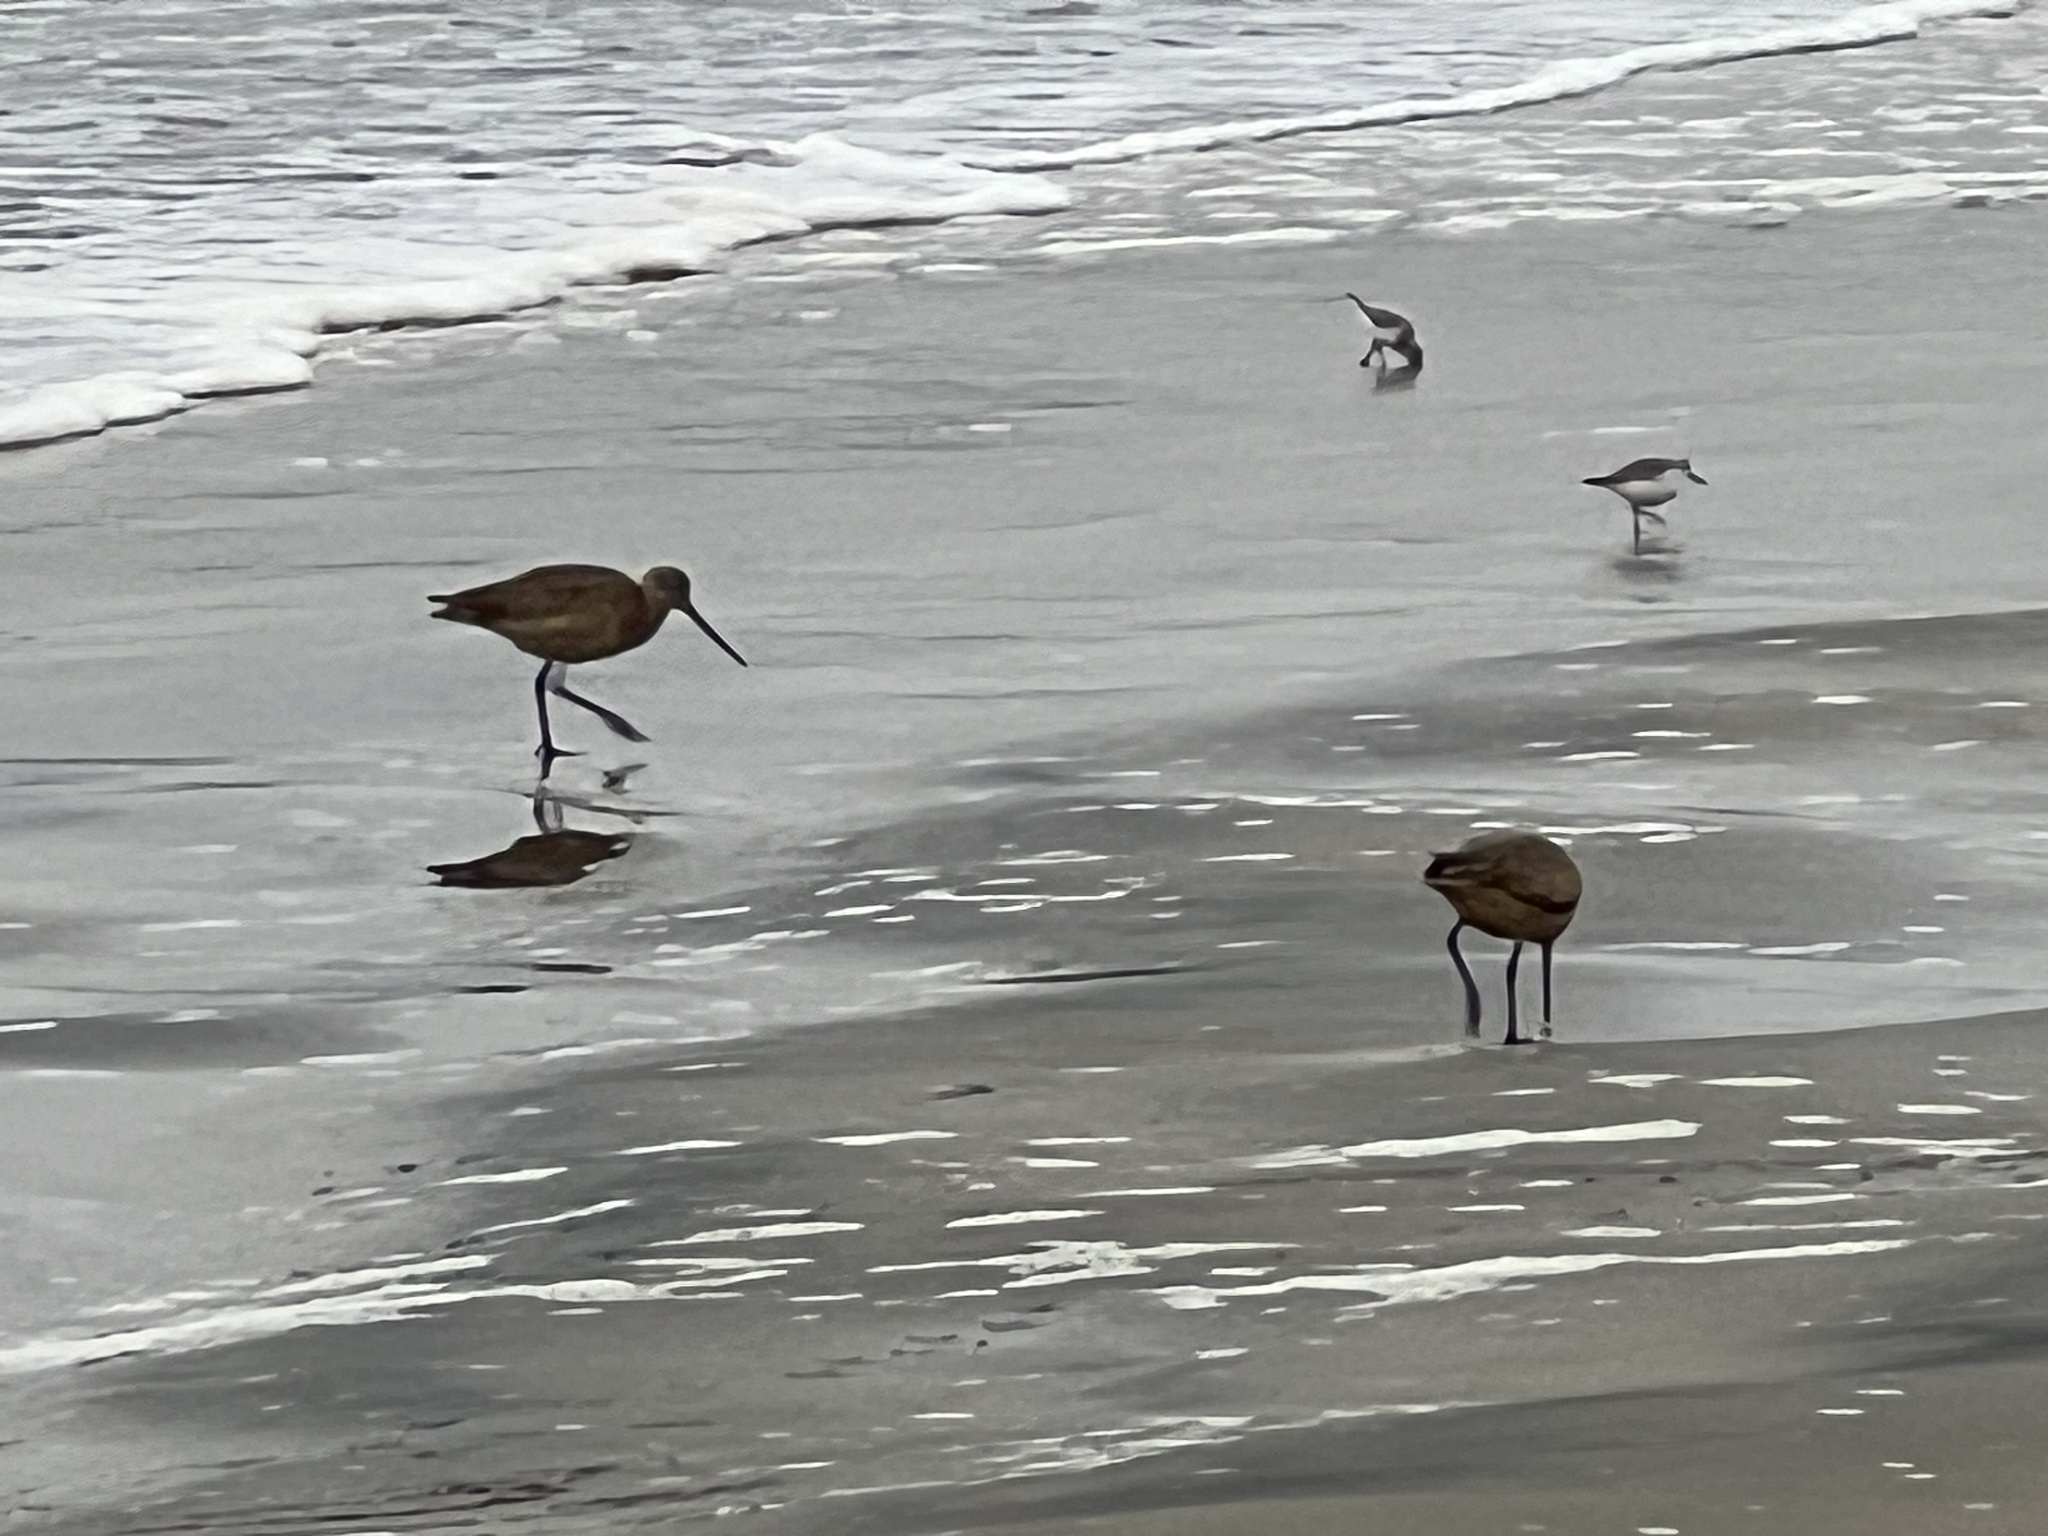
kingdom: Animalia
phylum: Chordata
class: Aves
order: Charadriiformes
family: Scolopacidae
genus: Limosa
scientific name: Limosa fedoa
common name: Marbled godwit
